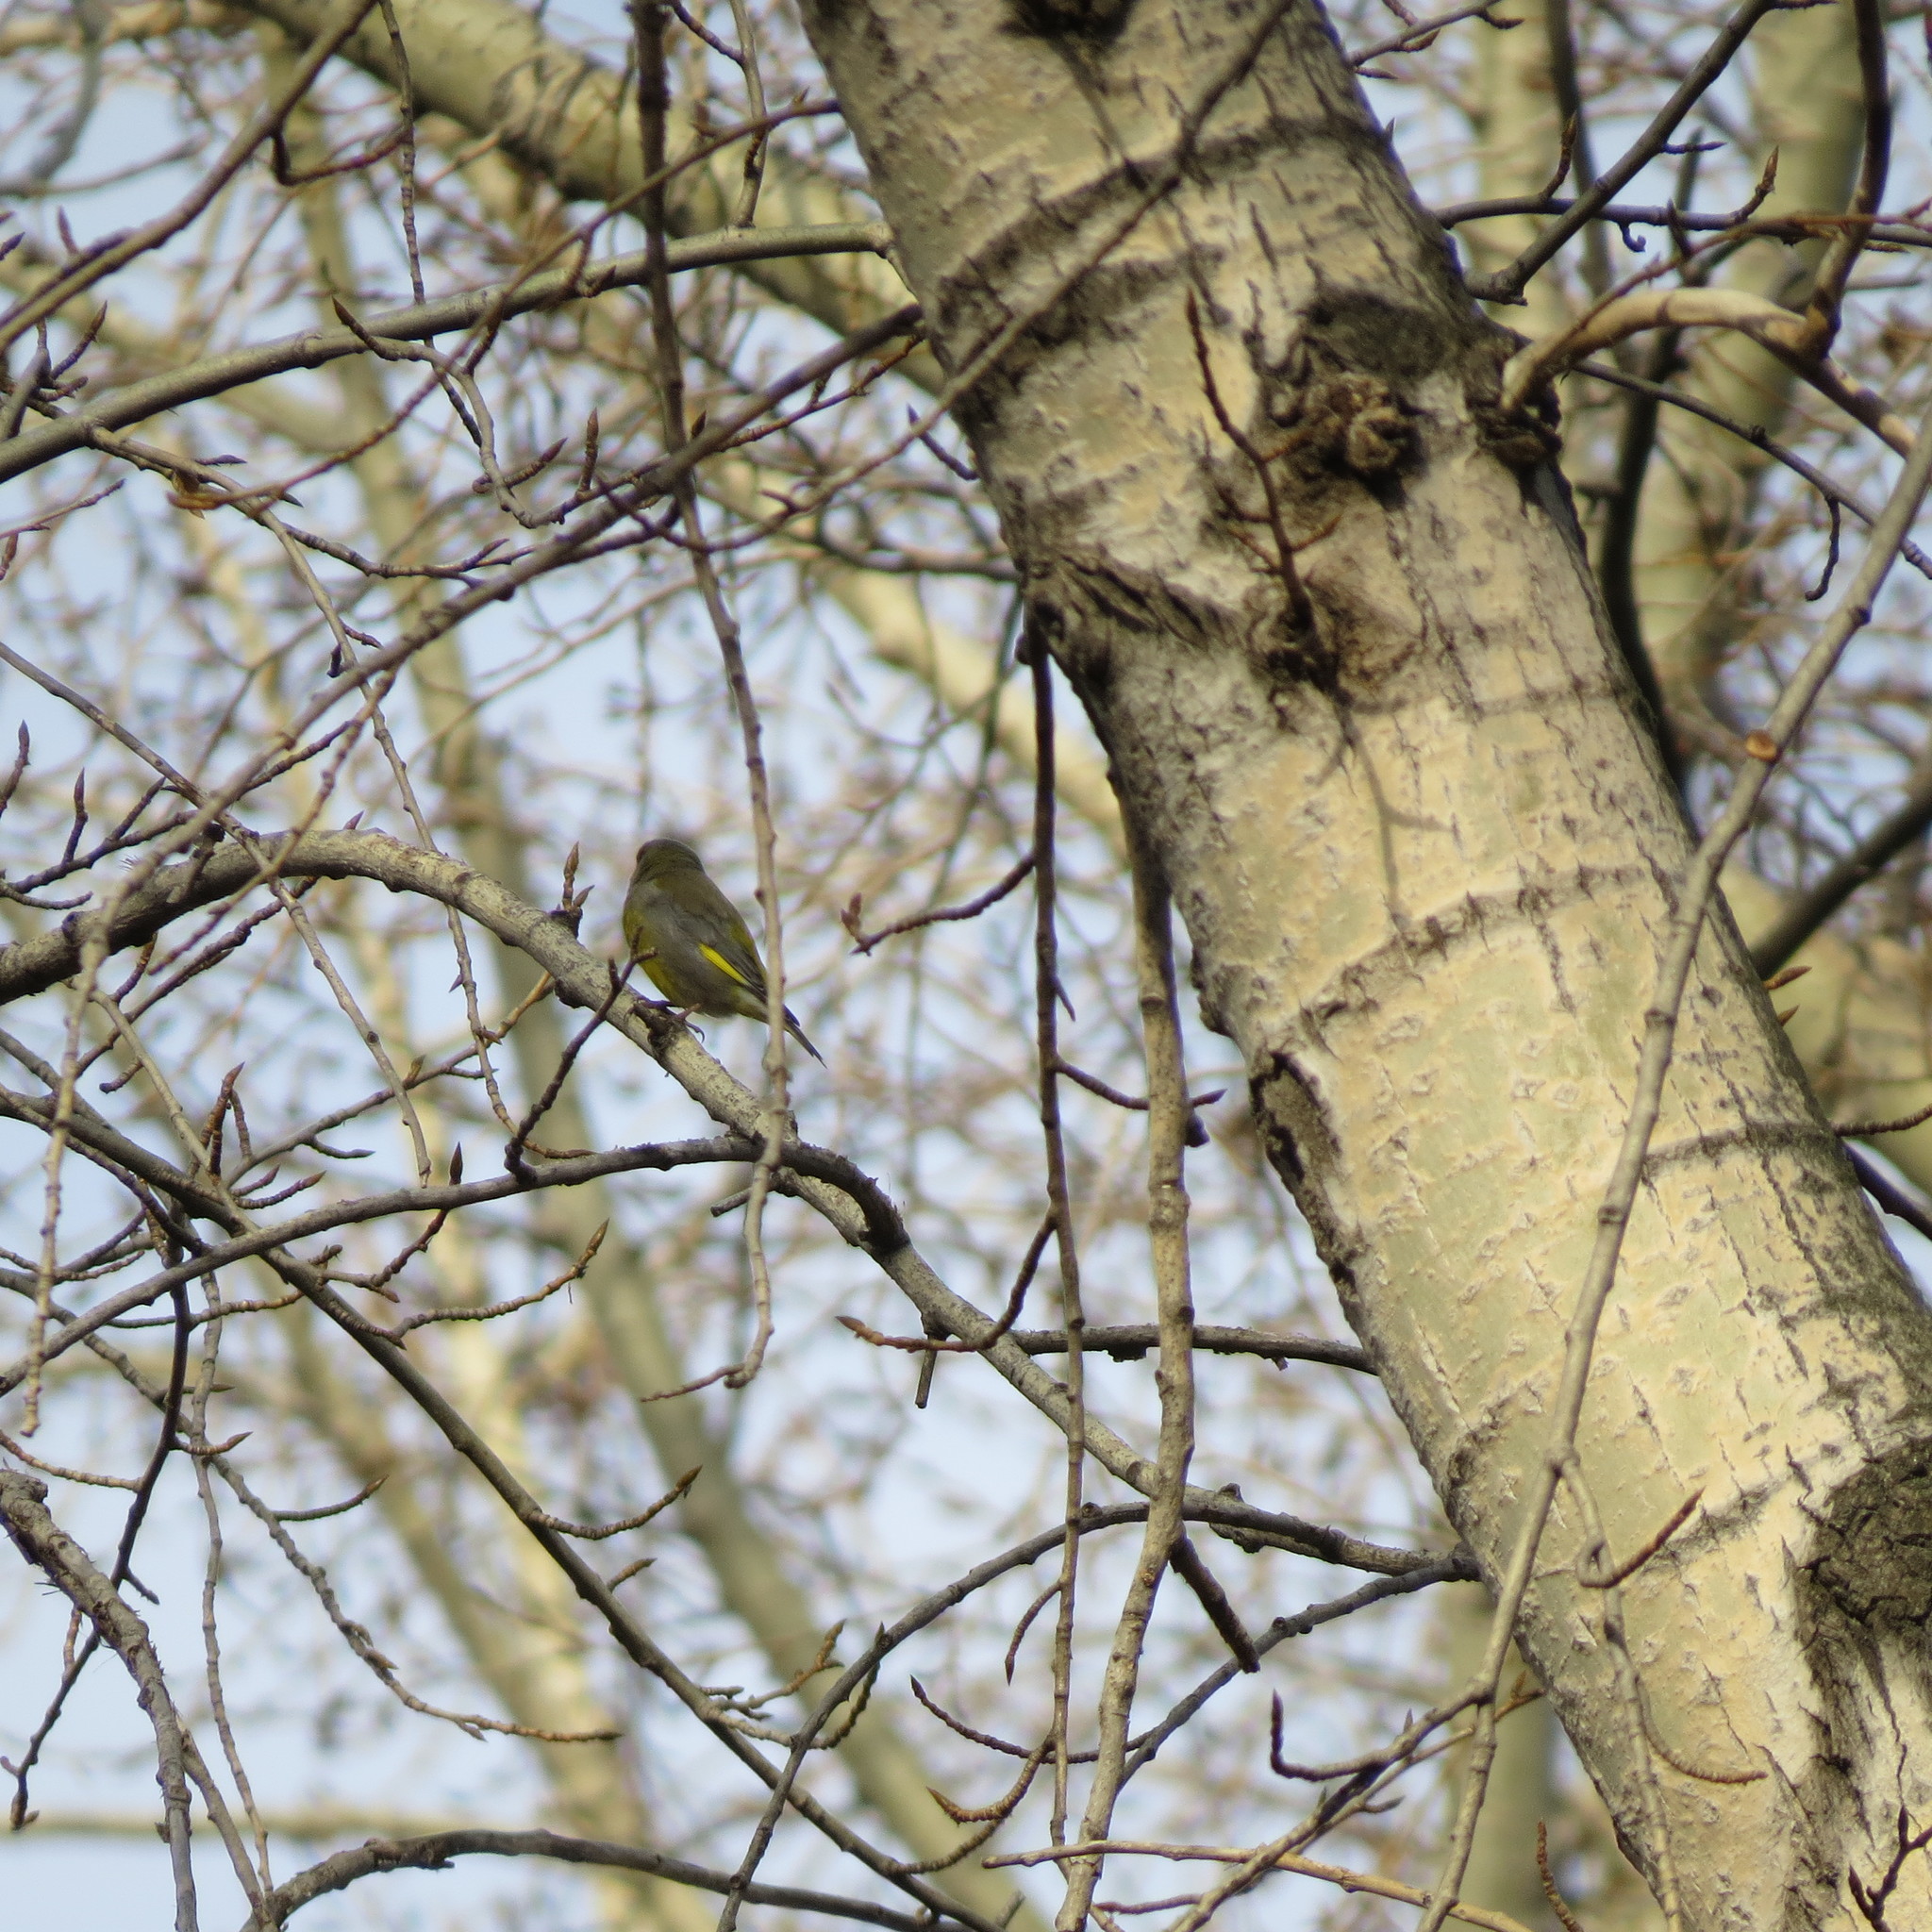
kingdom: Plantae
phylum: Tracheophyta
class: Liliopsida
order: Poales
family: Poaceae
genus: Chloris
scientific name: Chloris chloris
